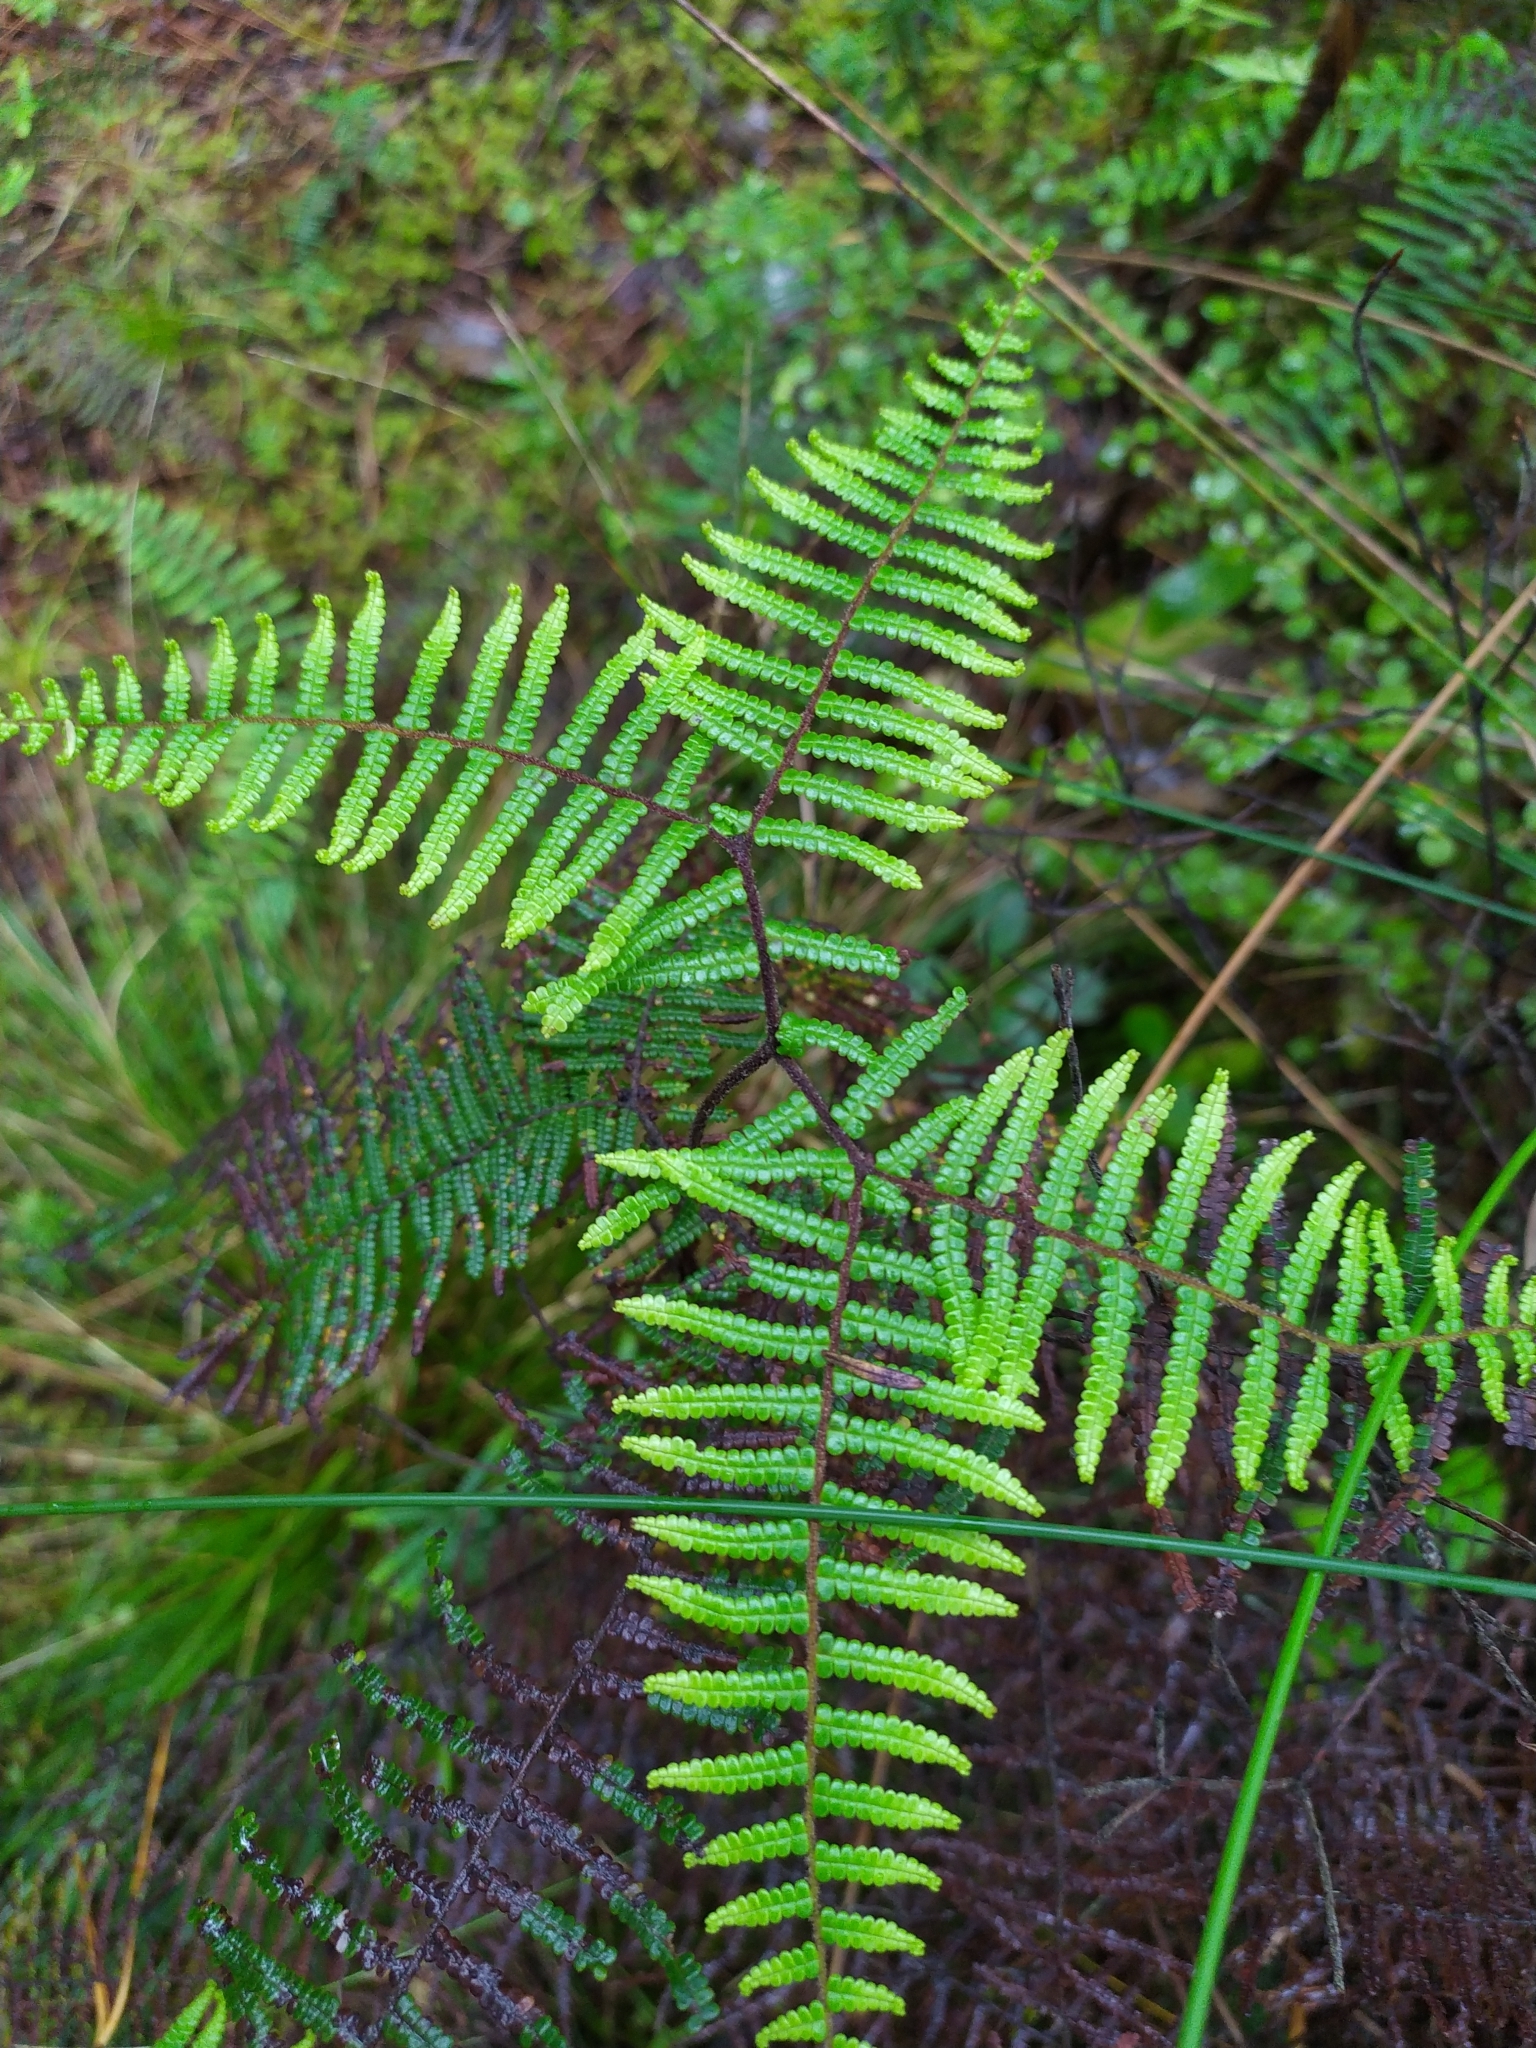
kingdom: Plantae
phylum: Tracheophyta
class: Polypodiopsida
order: Gleicheniales
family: Gleicheniaceae
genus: Gleichenia
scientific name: Gleichenia microphylla
